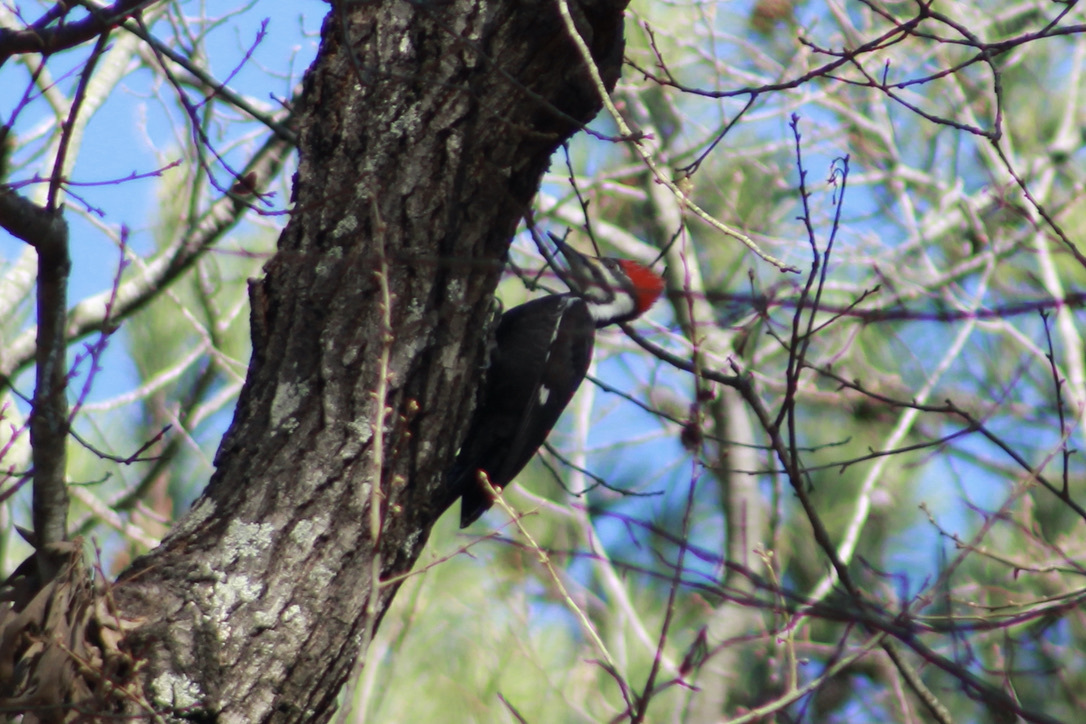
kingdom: Animalia
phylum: Chordata
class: Aves
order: Piciformes
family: Picidae
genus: Dryocopus
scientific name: Dryocopus pileatus
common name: Pileated woodpecker
